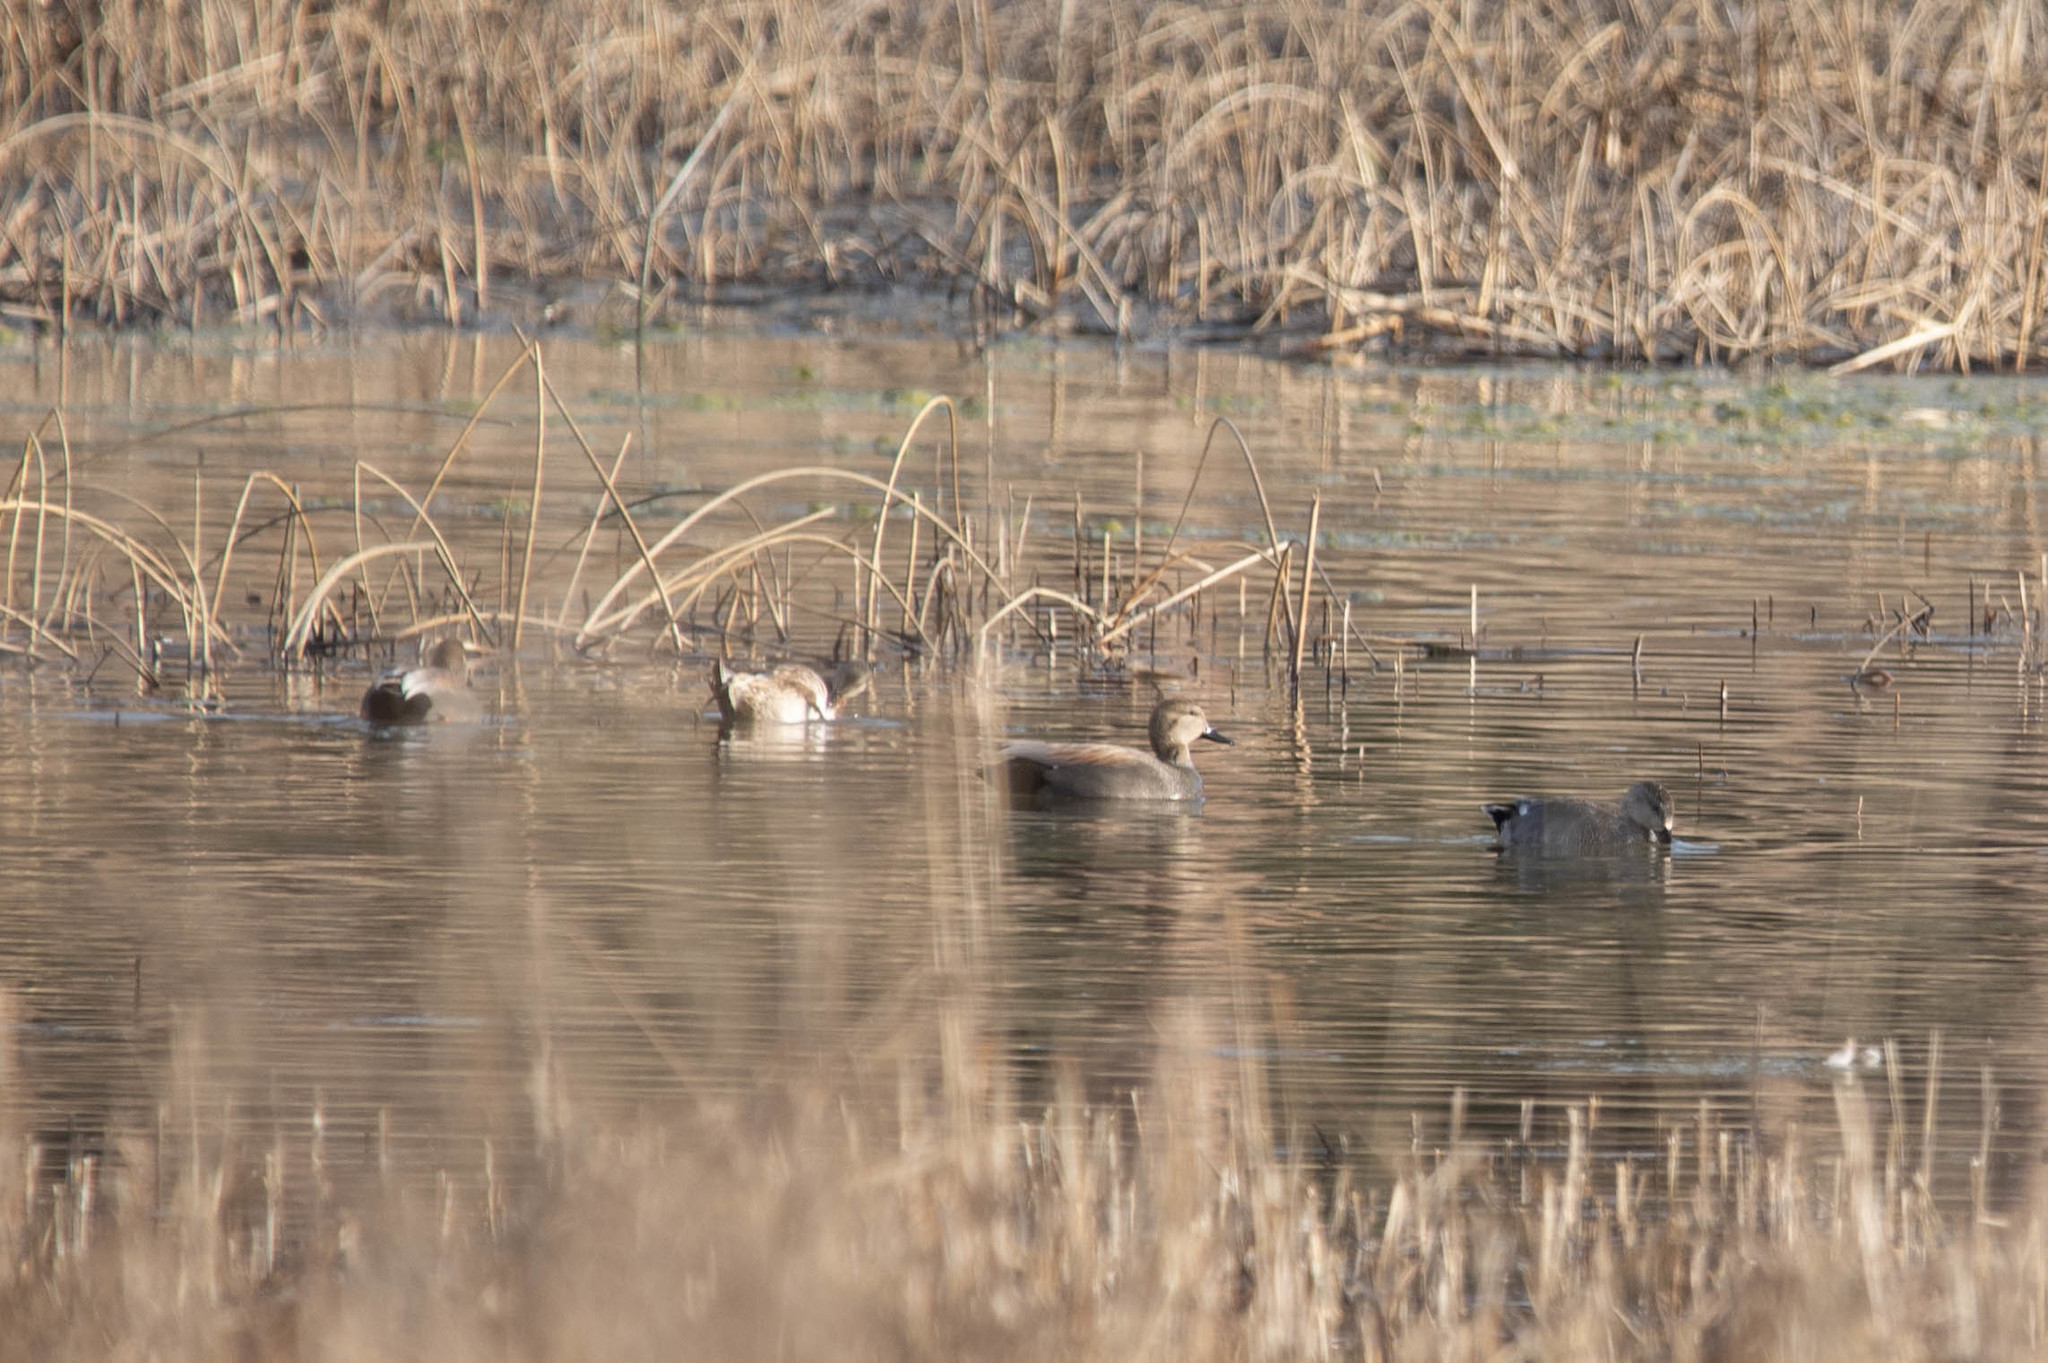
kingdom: Animalia
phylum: Chordata
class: Aves
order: Anseriformes
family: Anatidae
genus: Mareca
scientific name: Mareca strepera
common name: Gadwall
